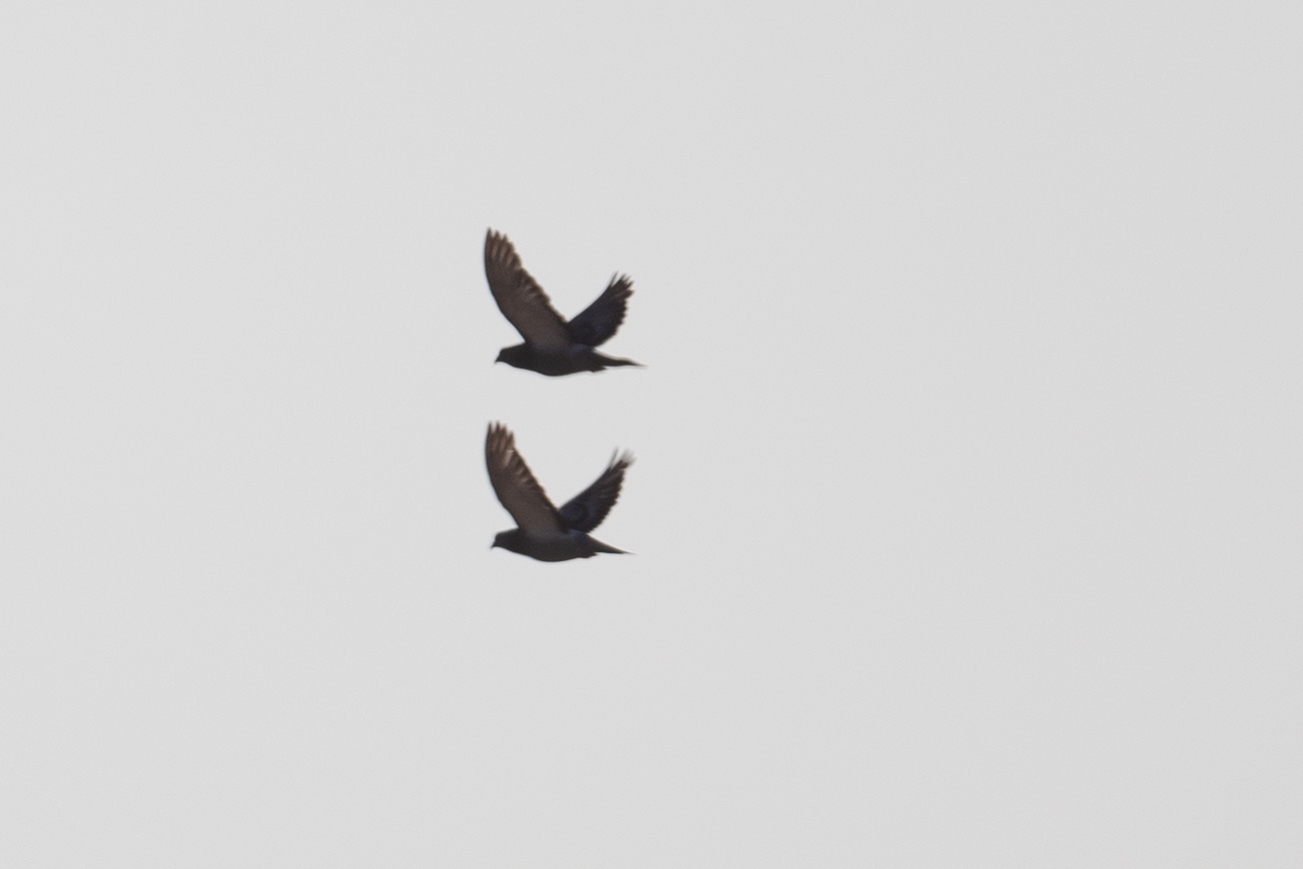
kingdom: Animalia
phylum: Chordata
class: Aves
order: Columbiformes
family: Columbidae
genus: Columba
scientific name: Columba livia
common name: Rock pigeon
